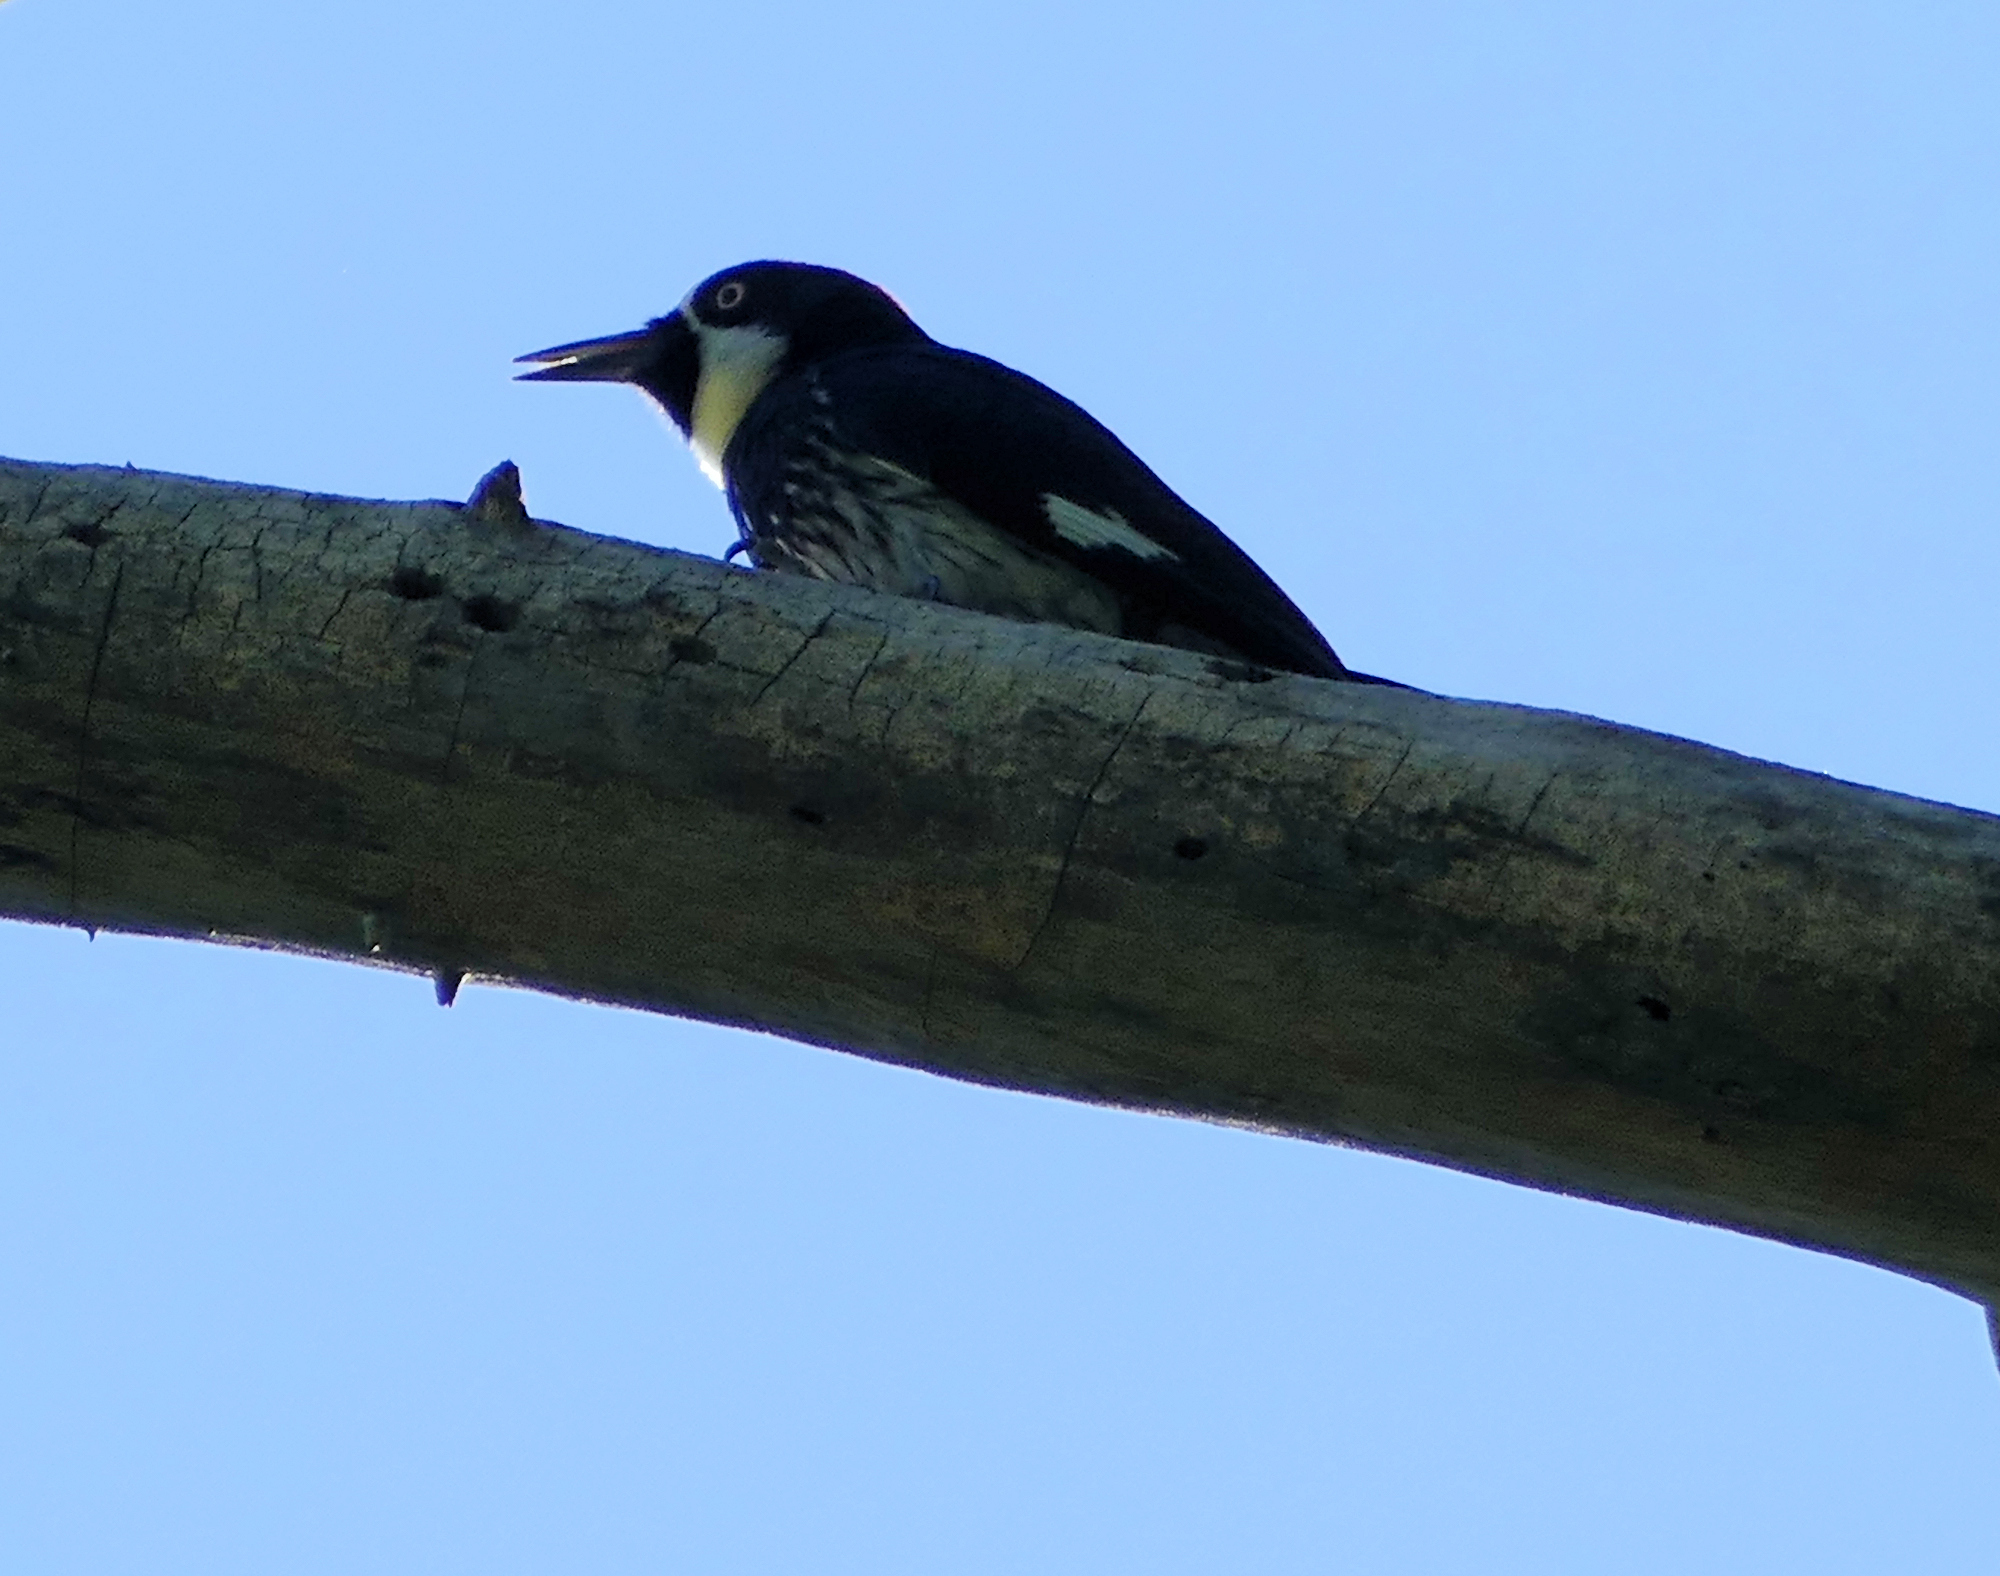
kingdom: Animalia
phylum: Chordata
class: Aves
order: Piciformes
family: Picidae
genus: Melanerpes
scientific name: Melanerpes formicivorus
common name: Acorn woodpecker
